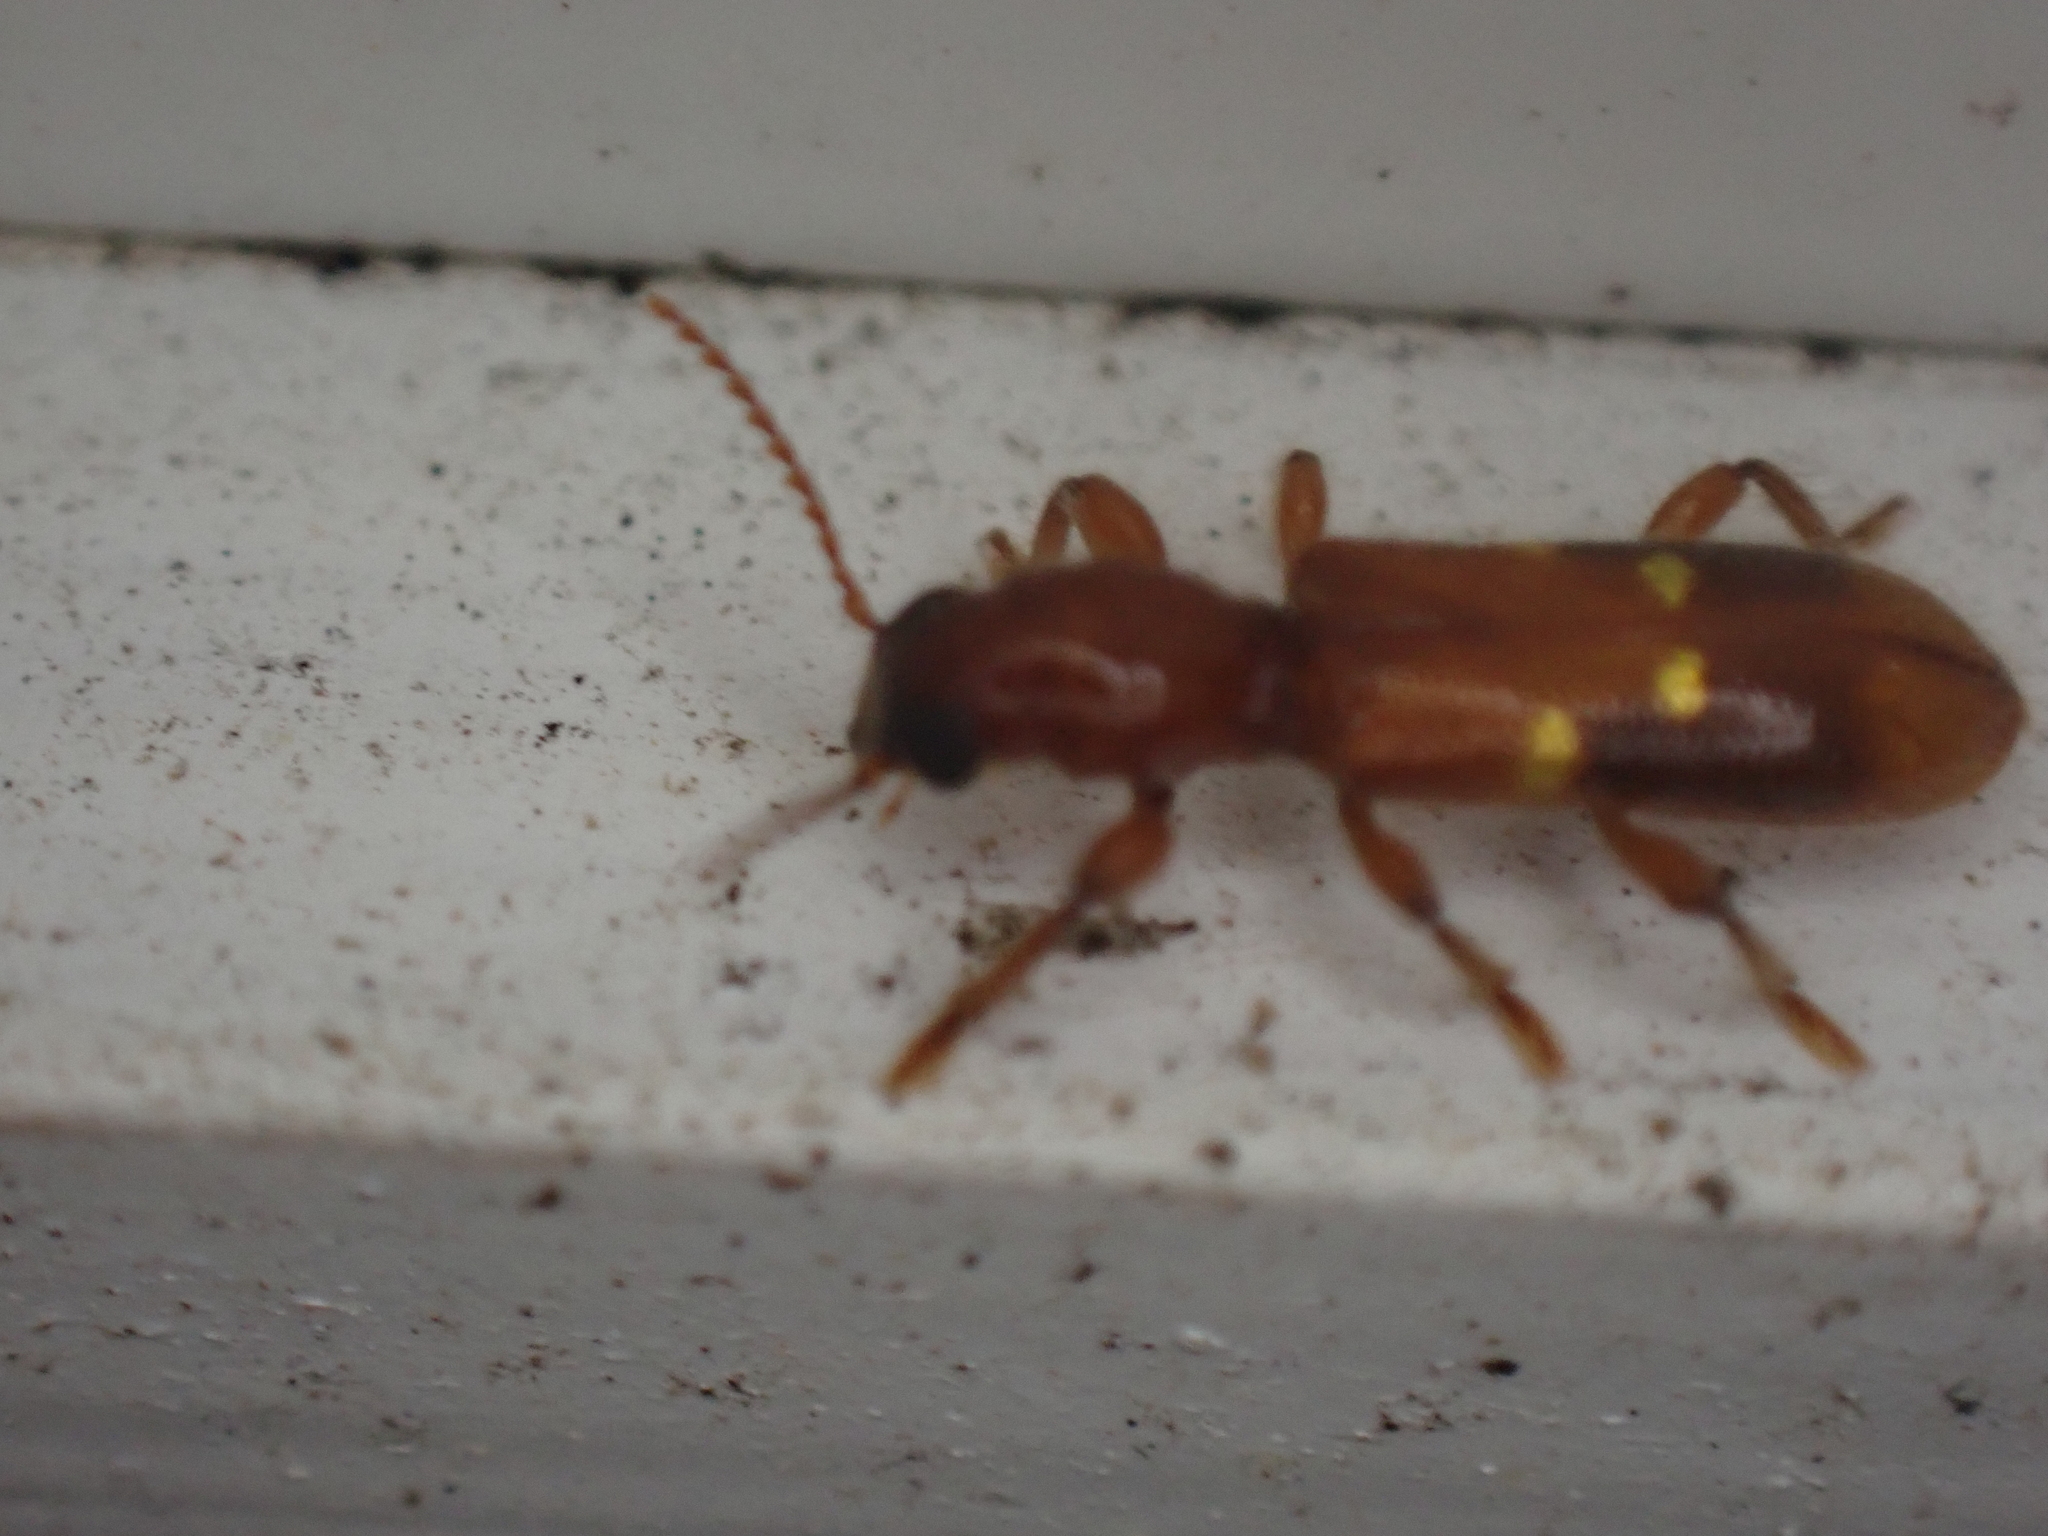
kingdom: Animalia
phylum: Arthropoda
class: Insecta
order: Coleoptera
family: Cleridae
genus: Priocera
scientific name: Priocera castanea
